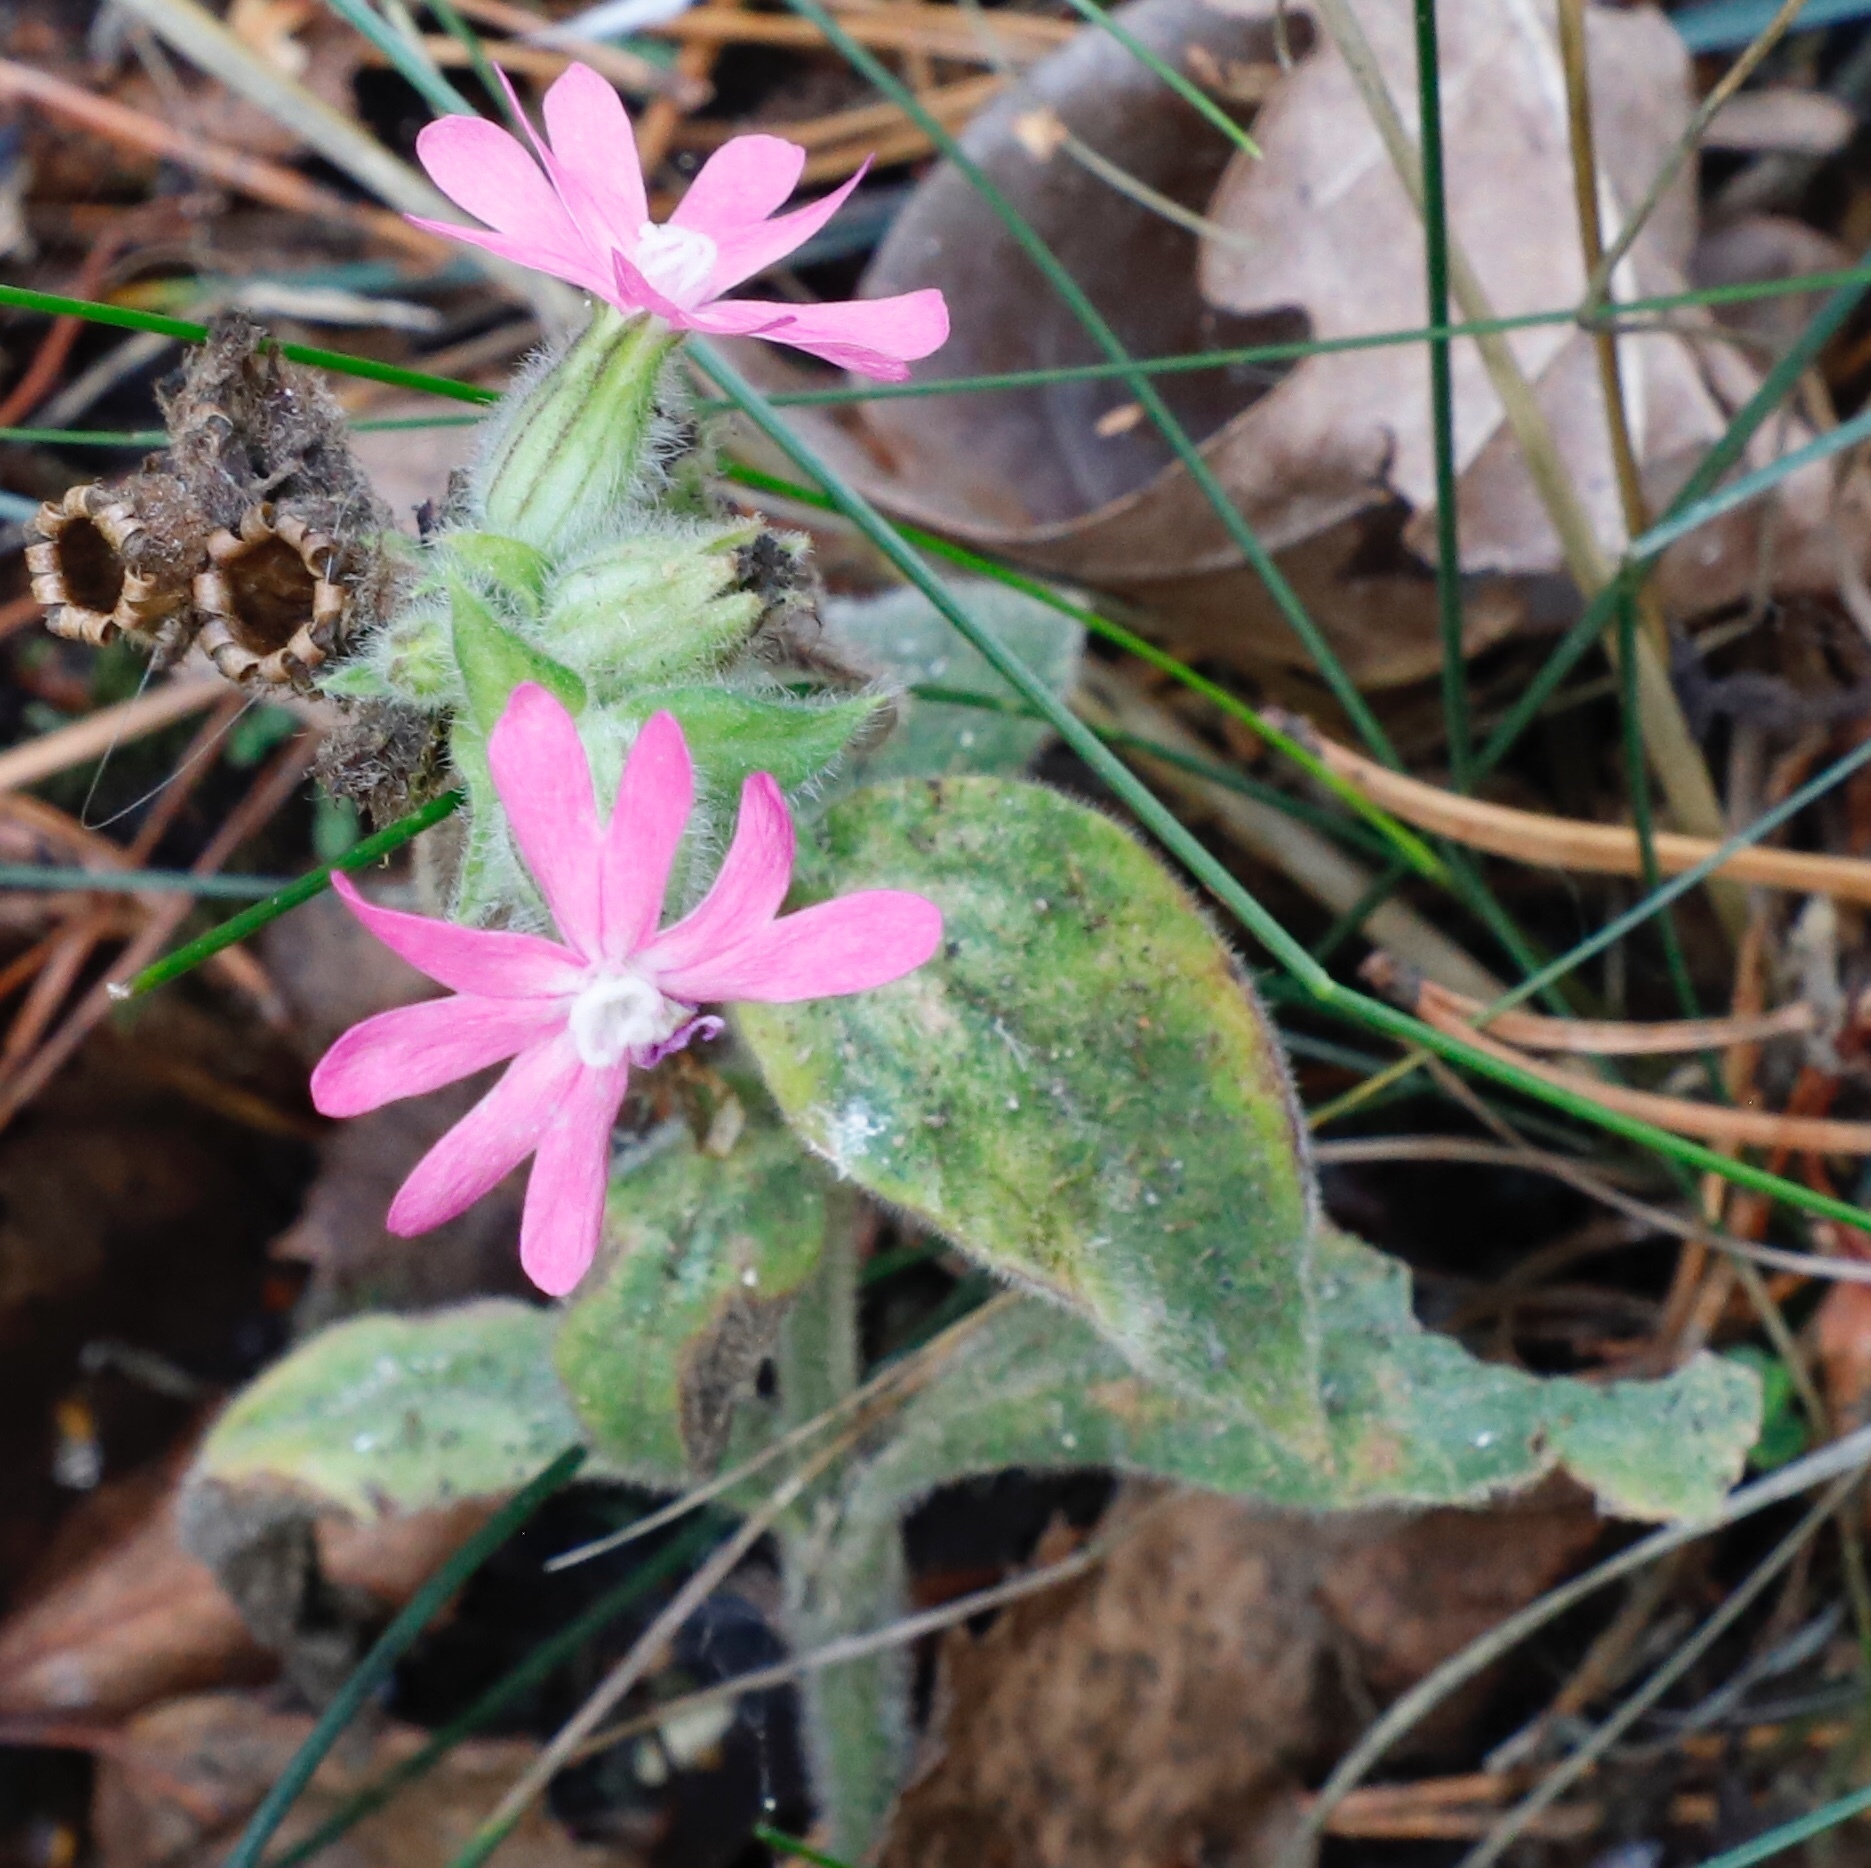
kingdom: Plantae
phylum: Tracheophyta
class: Magnoliopsida
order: Caryophyllales
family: Caryophyllaceae
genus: Silene
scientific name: Silene dioica
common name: Red campion
